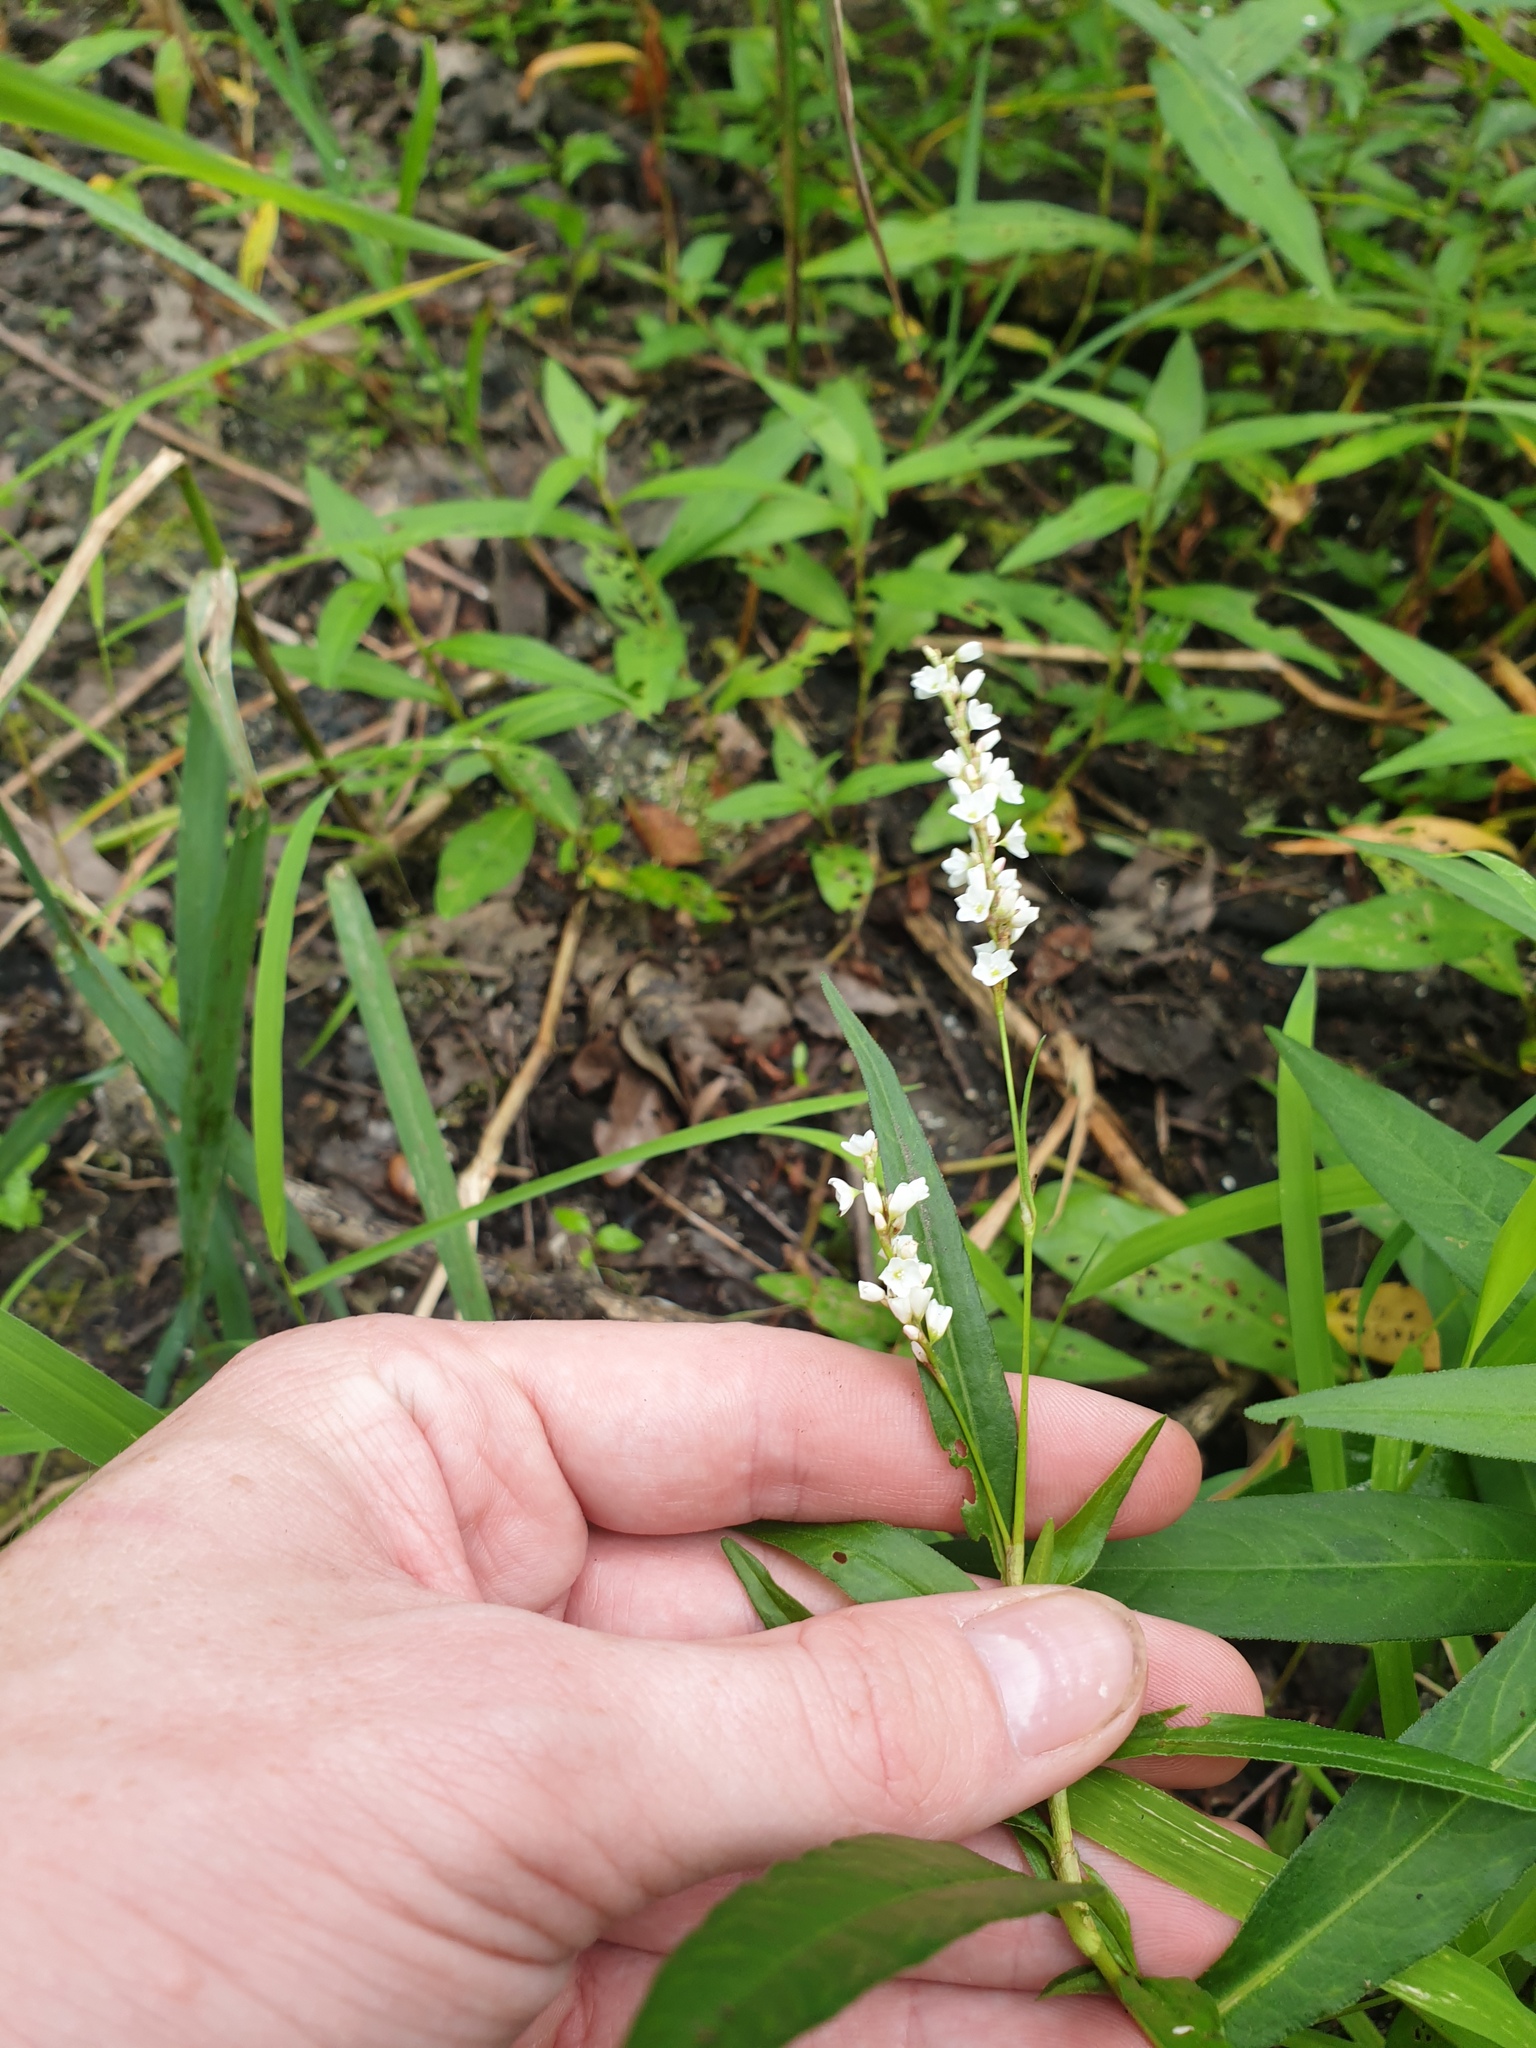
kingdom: Plantae
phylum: Tracheophyta
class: Magnoliopsida
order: Caryophyllales
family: Polygonaceae
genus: Persicaria
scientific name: Persicaria hydropiperoides
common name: Swamp smartweed
